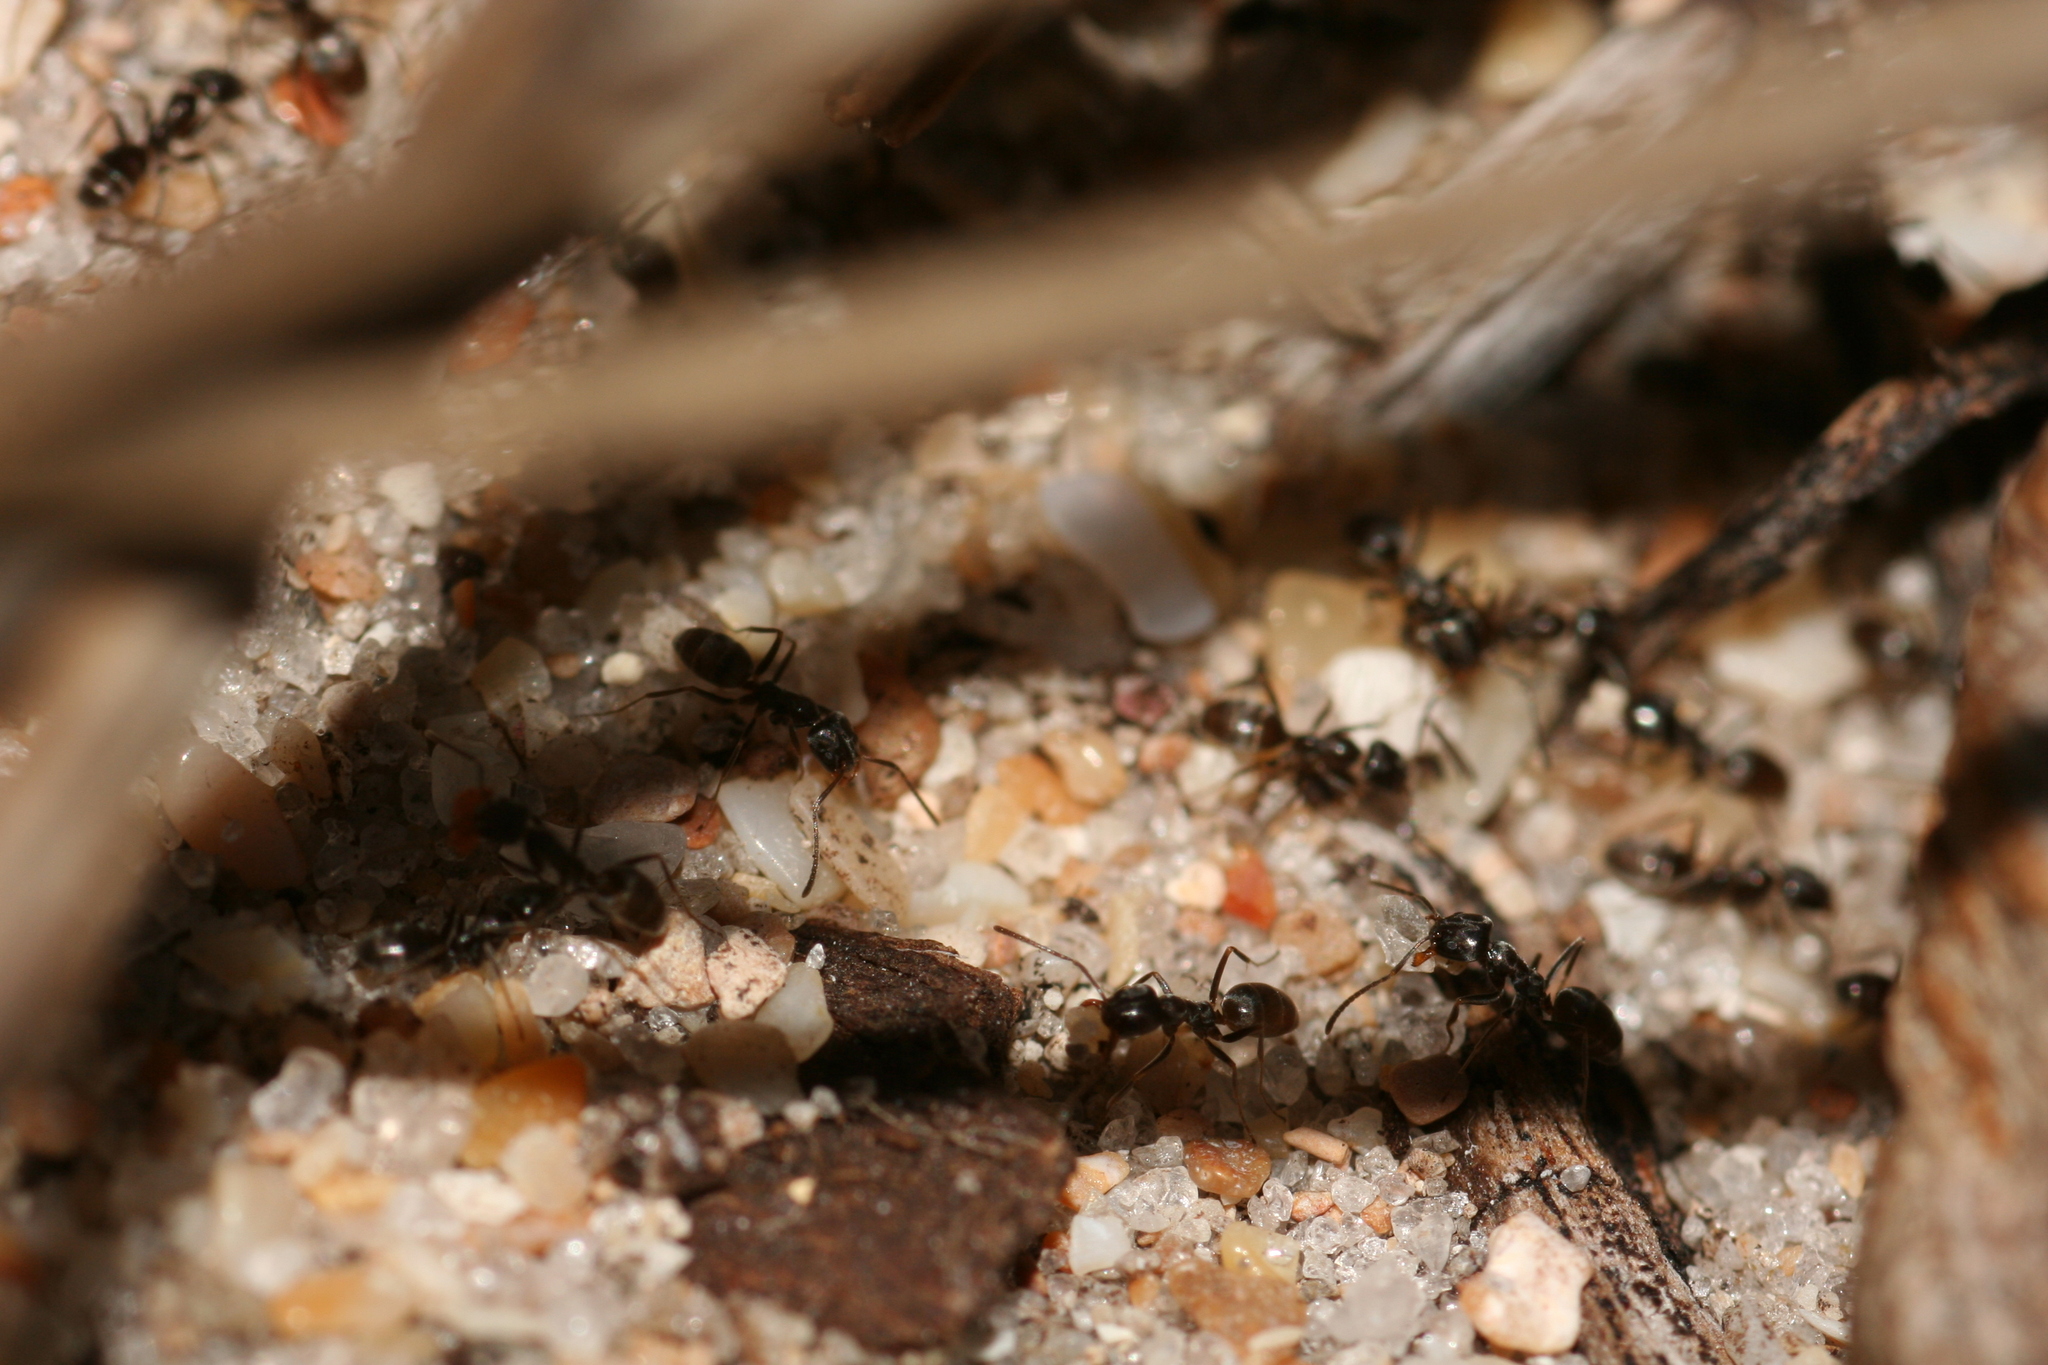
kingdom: Animalia
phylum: Arthropoda
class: Insecta
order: Hymenoptera
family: Formicidae
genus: Forelius
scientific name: Forelius pruinosus
